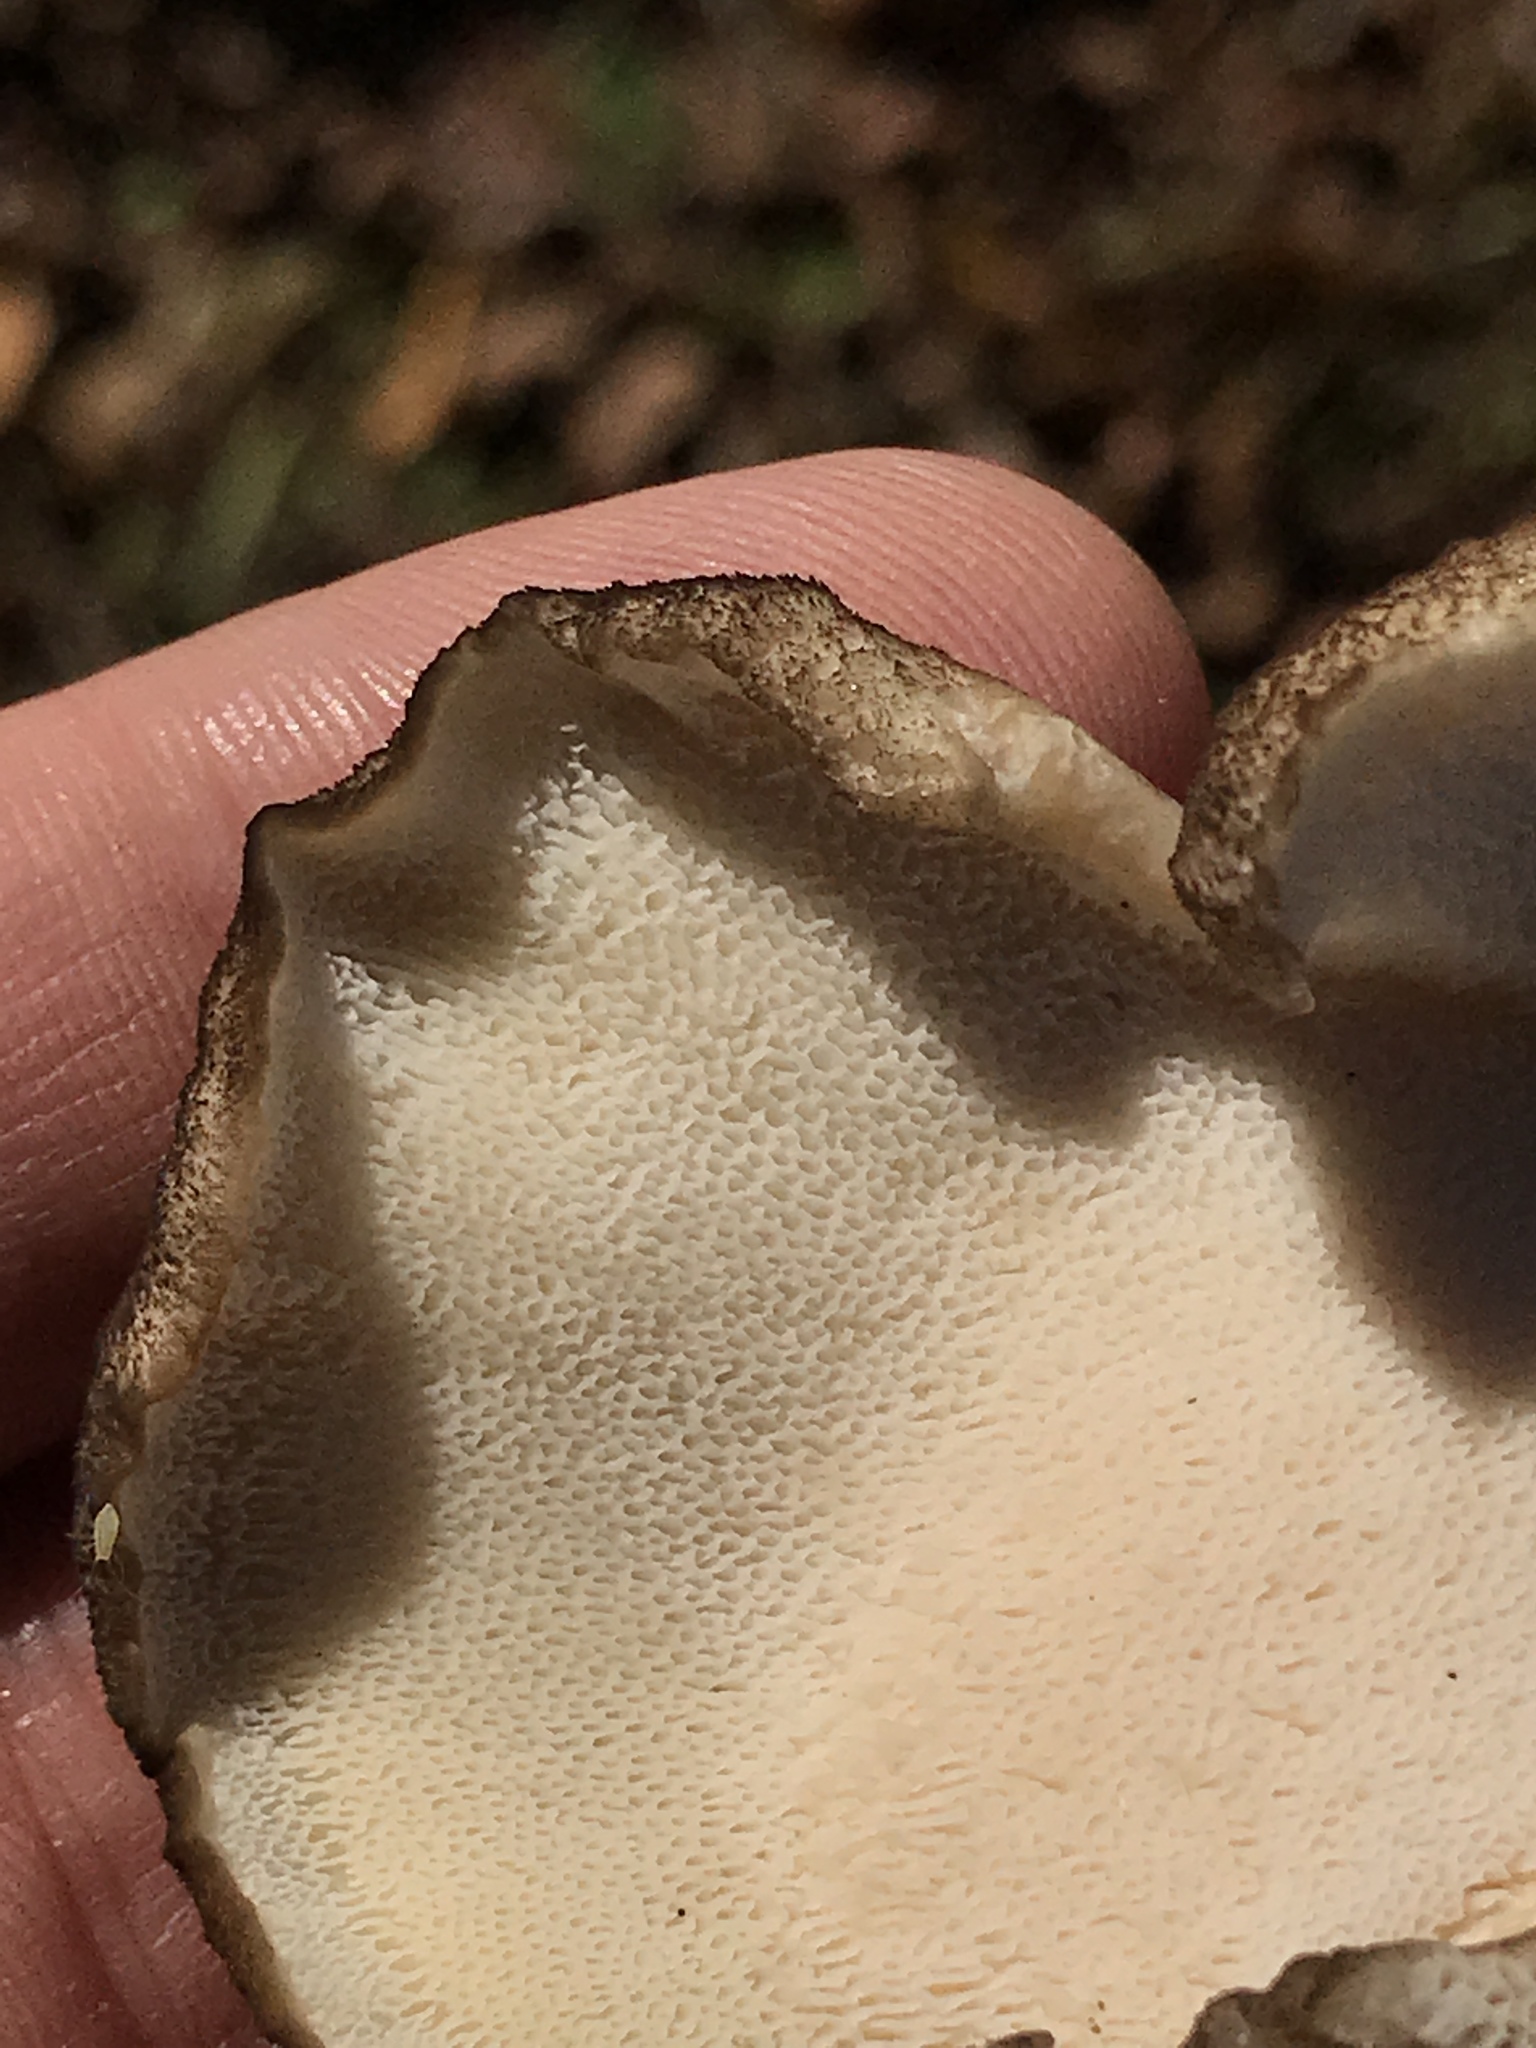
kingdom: Fungi
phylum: Basidiomycota
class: Agaricomycetes
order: Polyporales
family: Grifolaceae
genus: Grifola
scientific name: Grifola frondosa
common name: Hen of the woods
